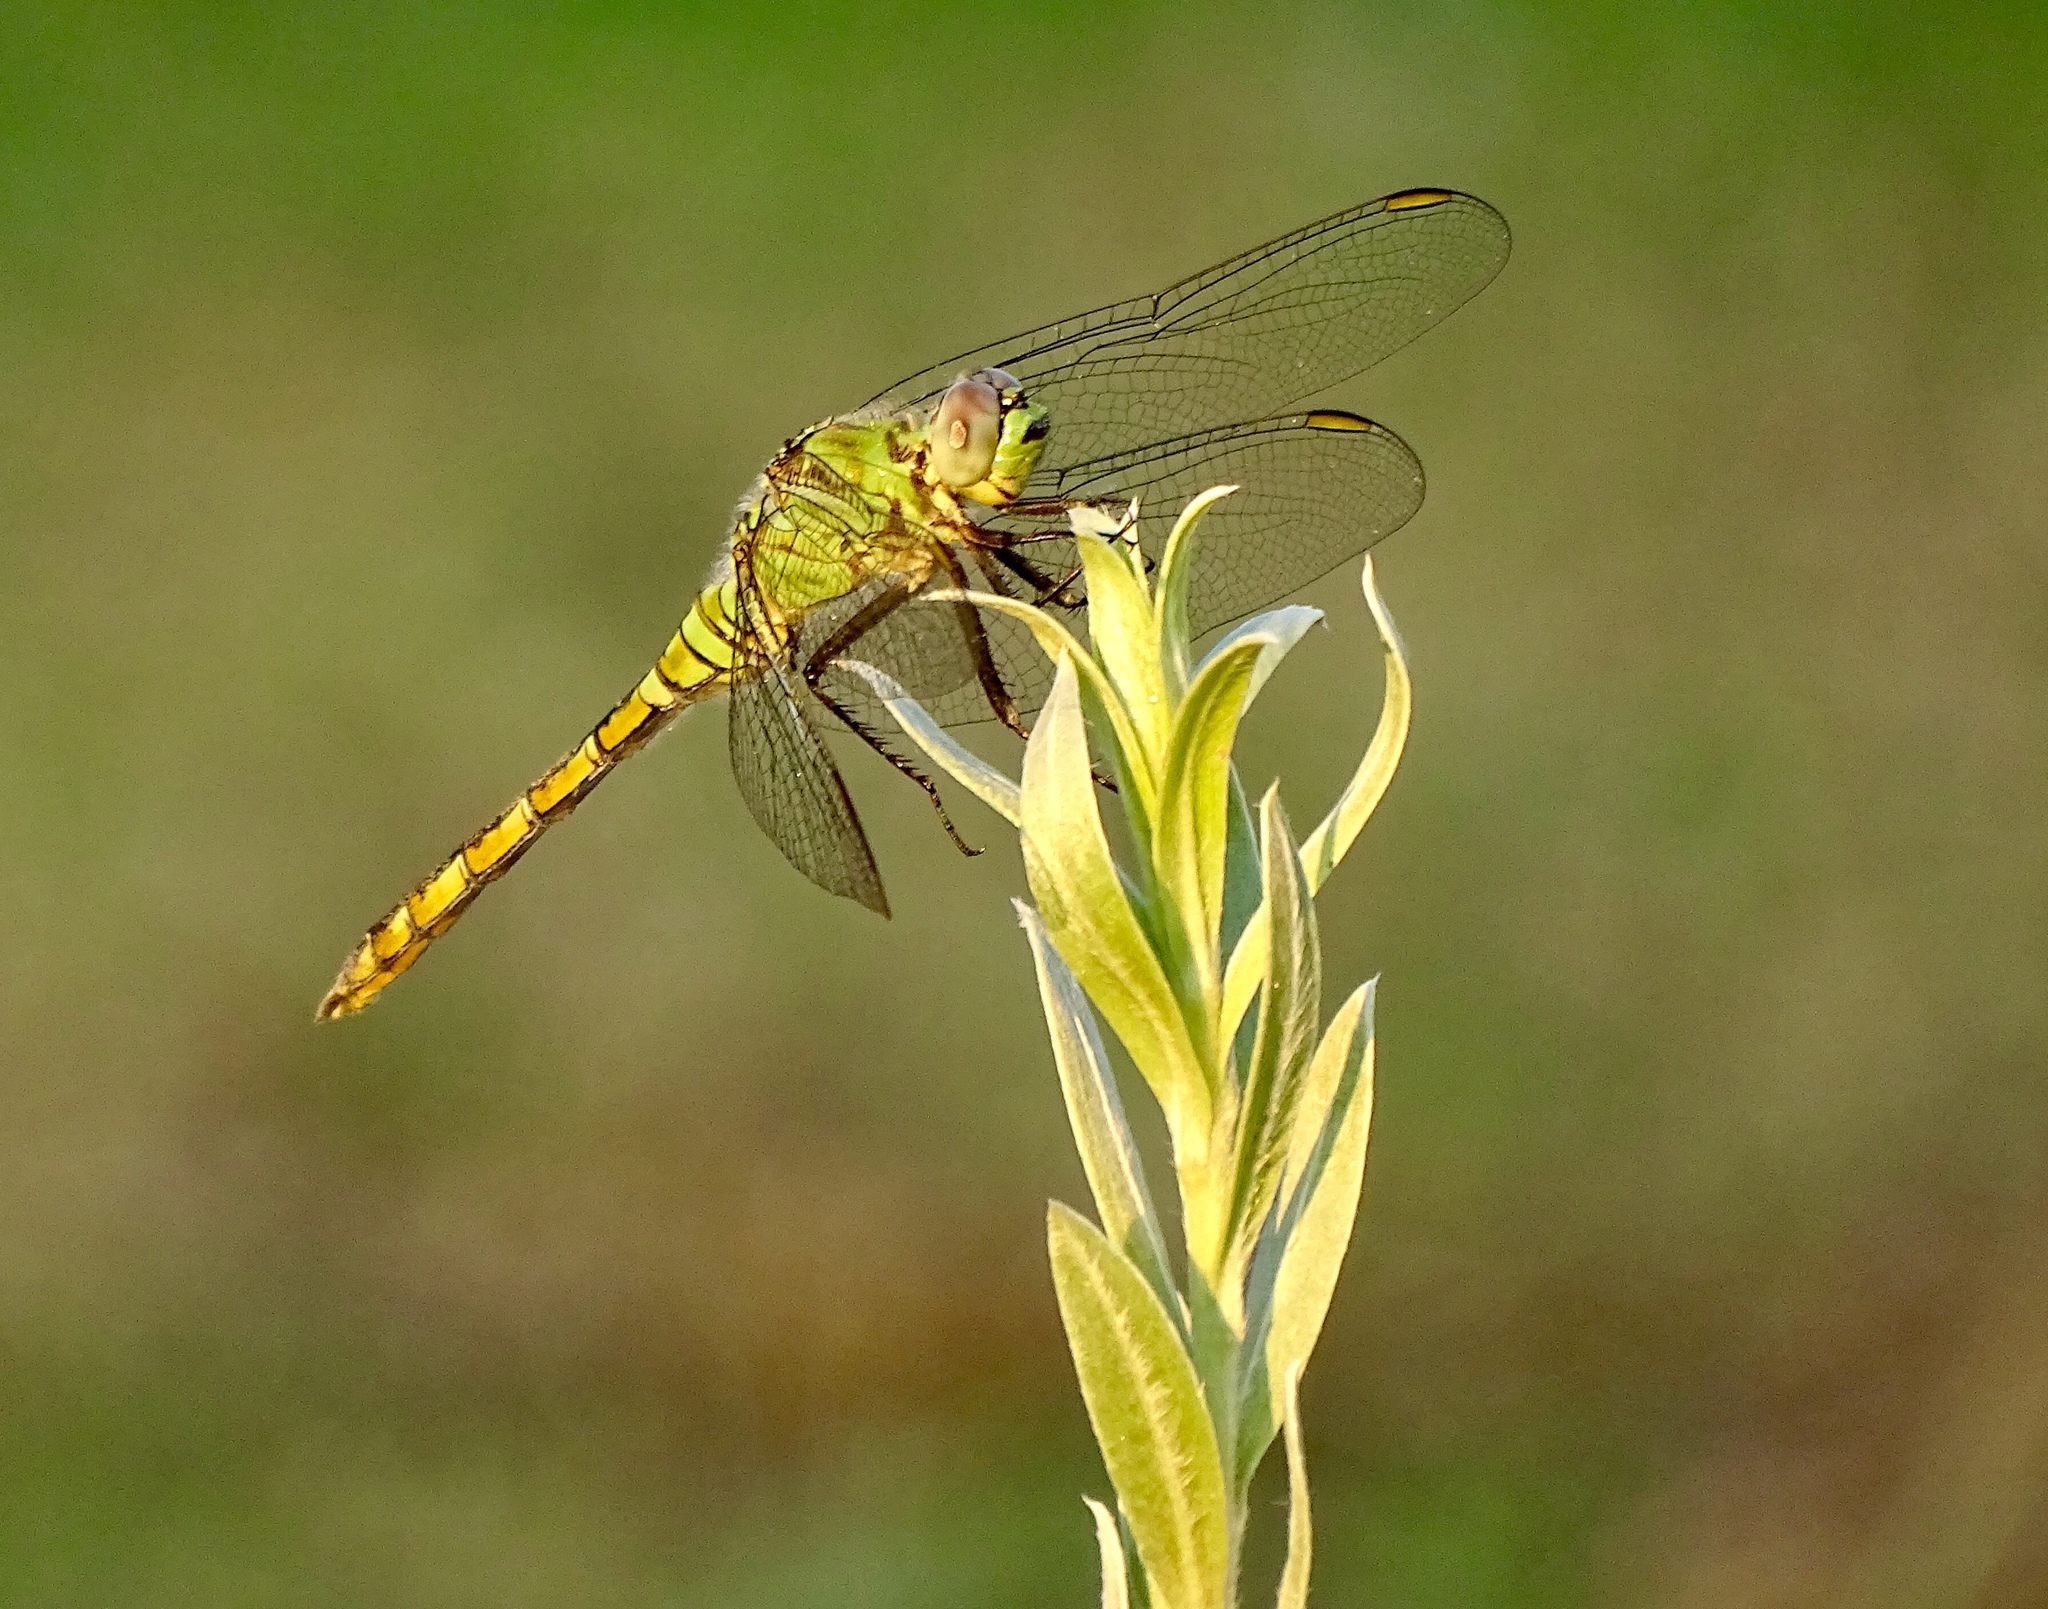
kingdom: Animalia
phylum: Arthropoda
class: Insecta
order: Odonata
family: Libellulidae
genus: Erythemis
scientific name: Erythemis collocata
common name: Western pondhawk
